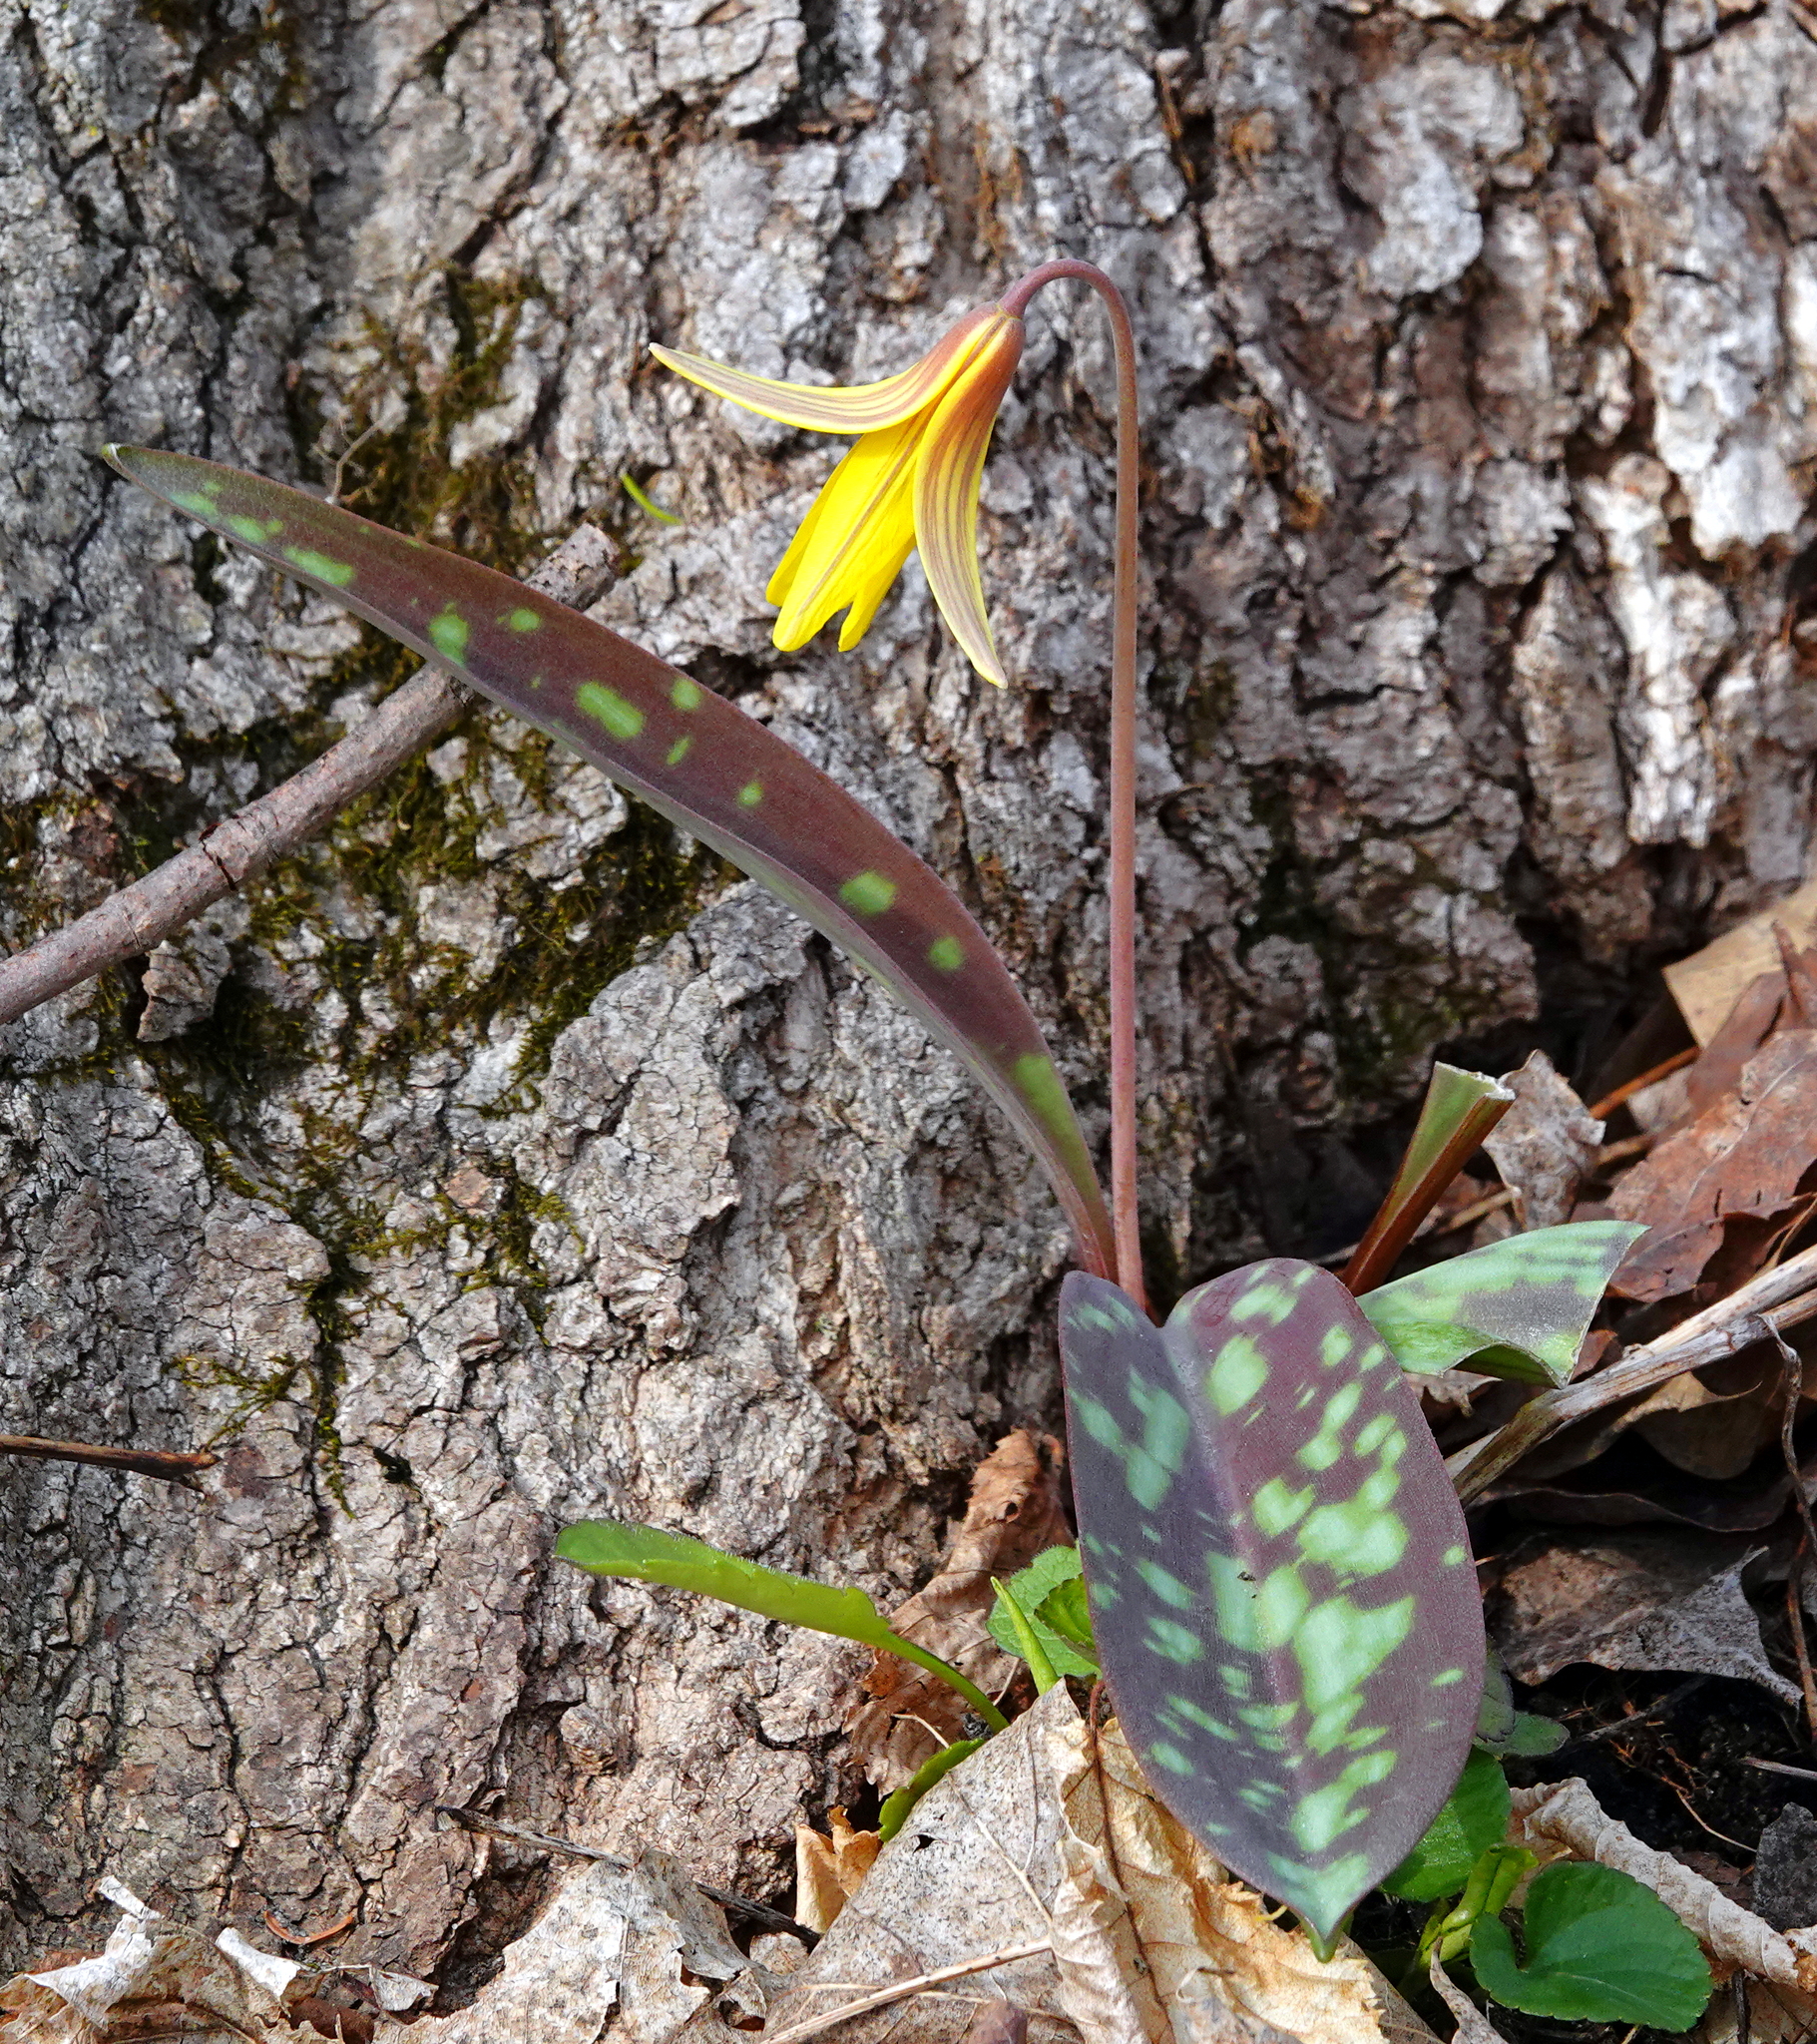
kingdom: Plantae
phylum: Tracheophyta
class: Liliopsida
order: Liliales
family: Liliaceae
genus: Erythronium
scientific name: Erythronium americanum
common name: Yellow adder's-tongue
